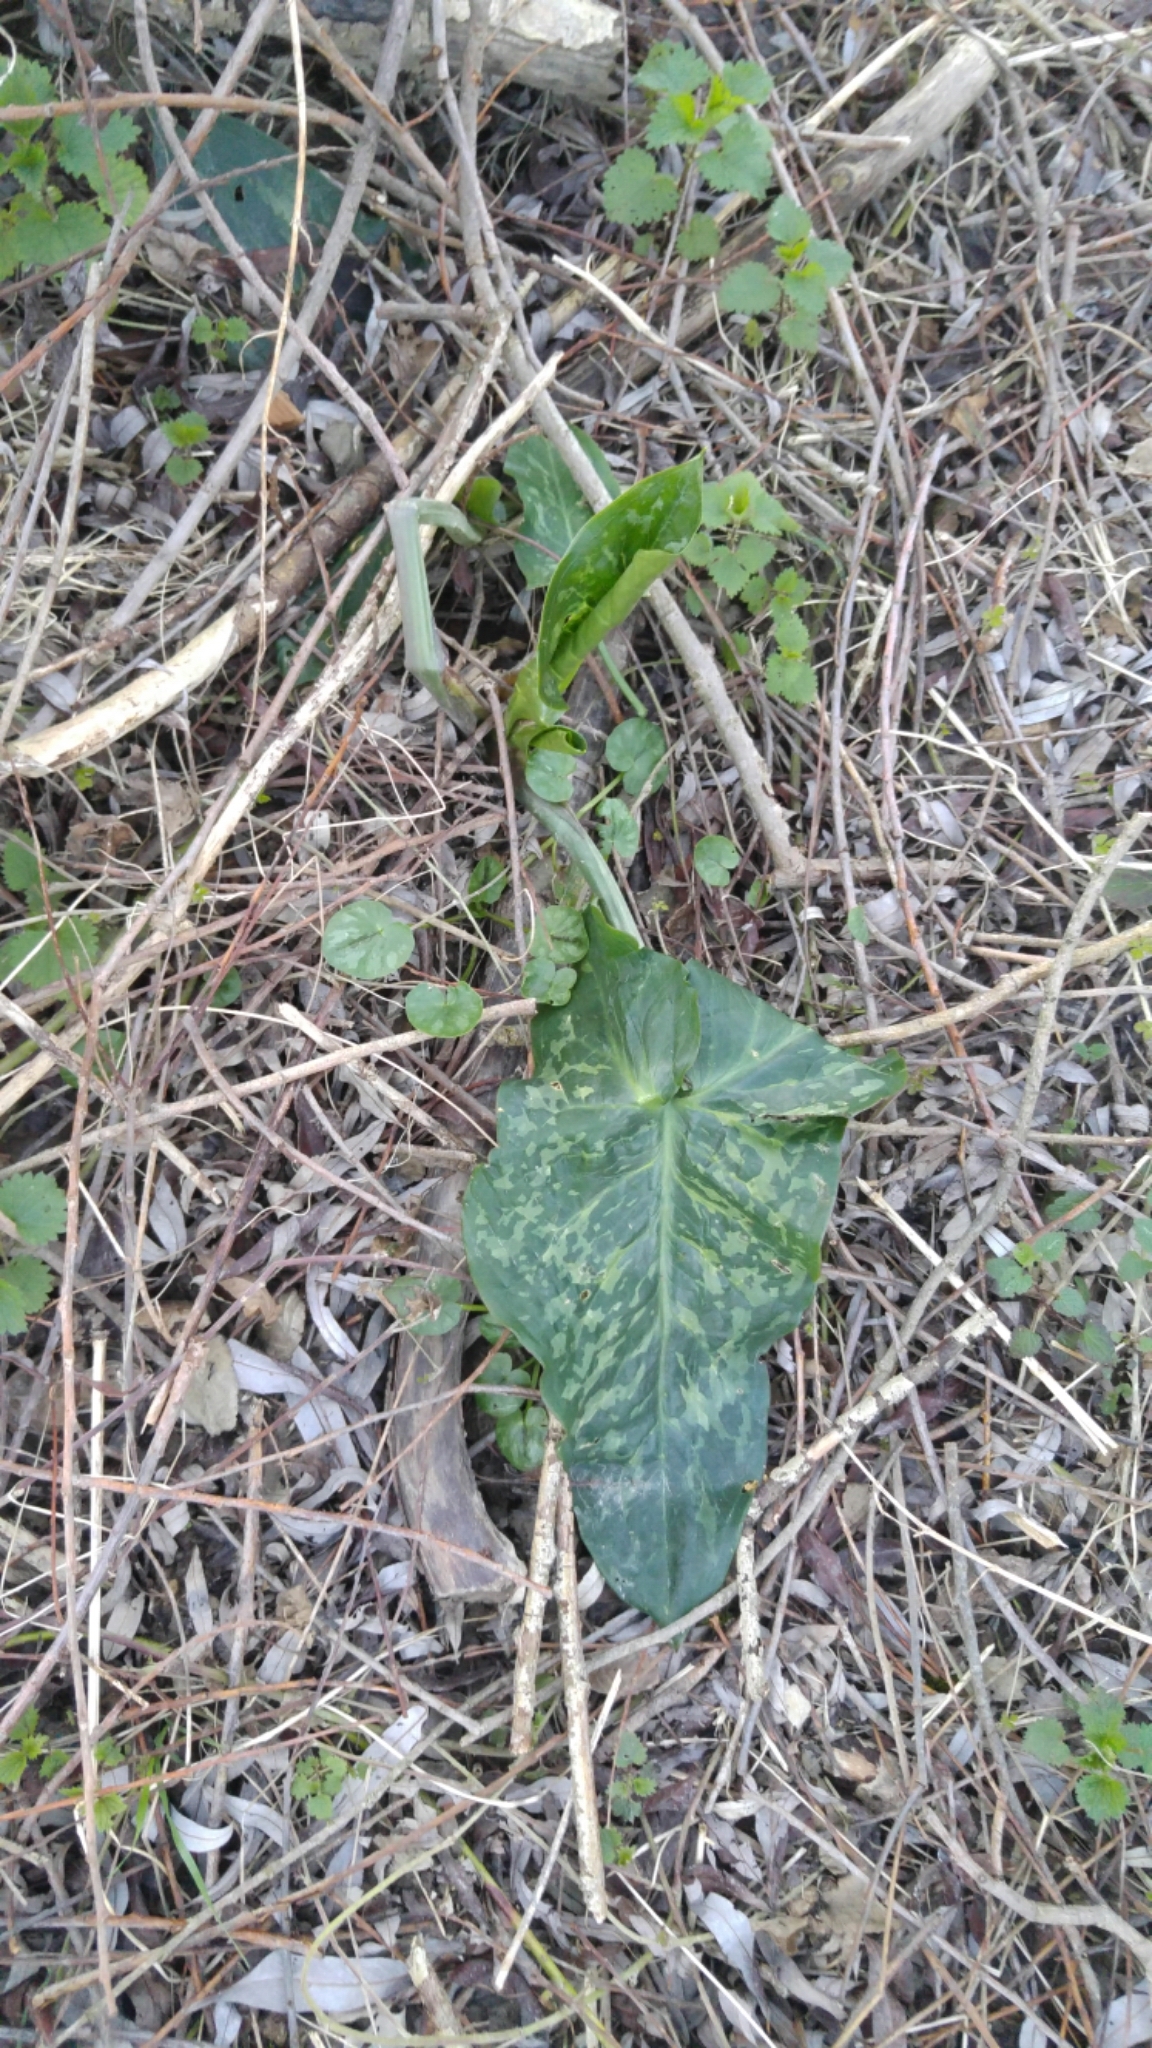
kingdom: Plantae
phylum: Tracheophyta
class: Liliopsida
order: Alismatales
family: Araceae
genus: Arum
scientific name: Arum italicum
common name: Italian lords-and-ladies
